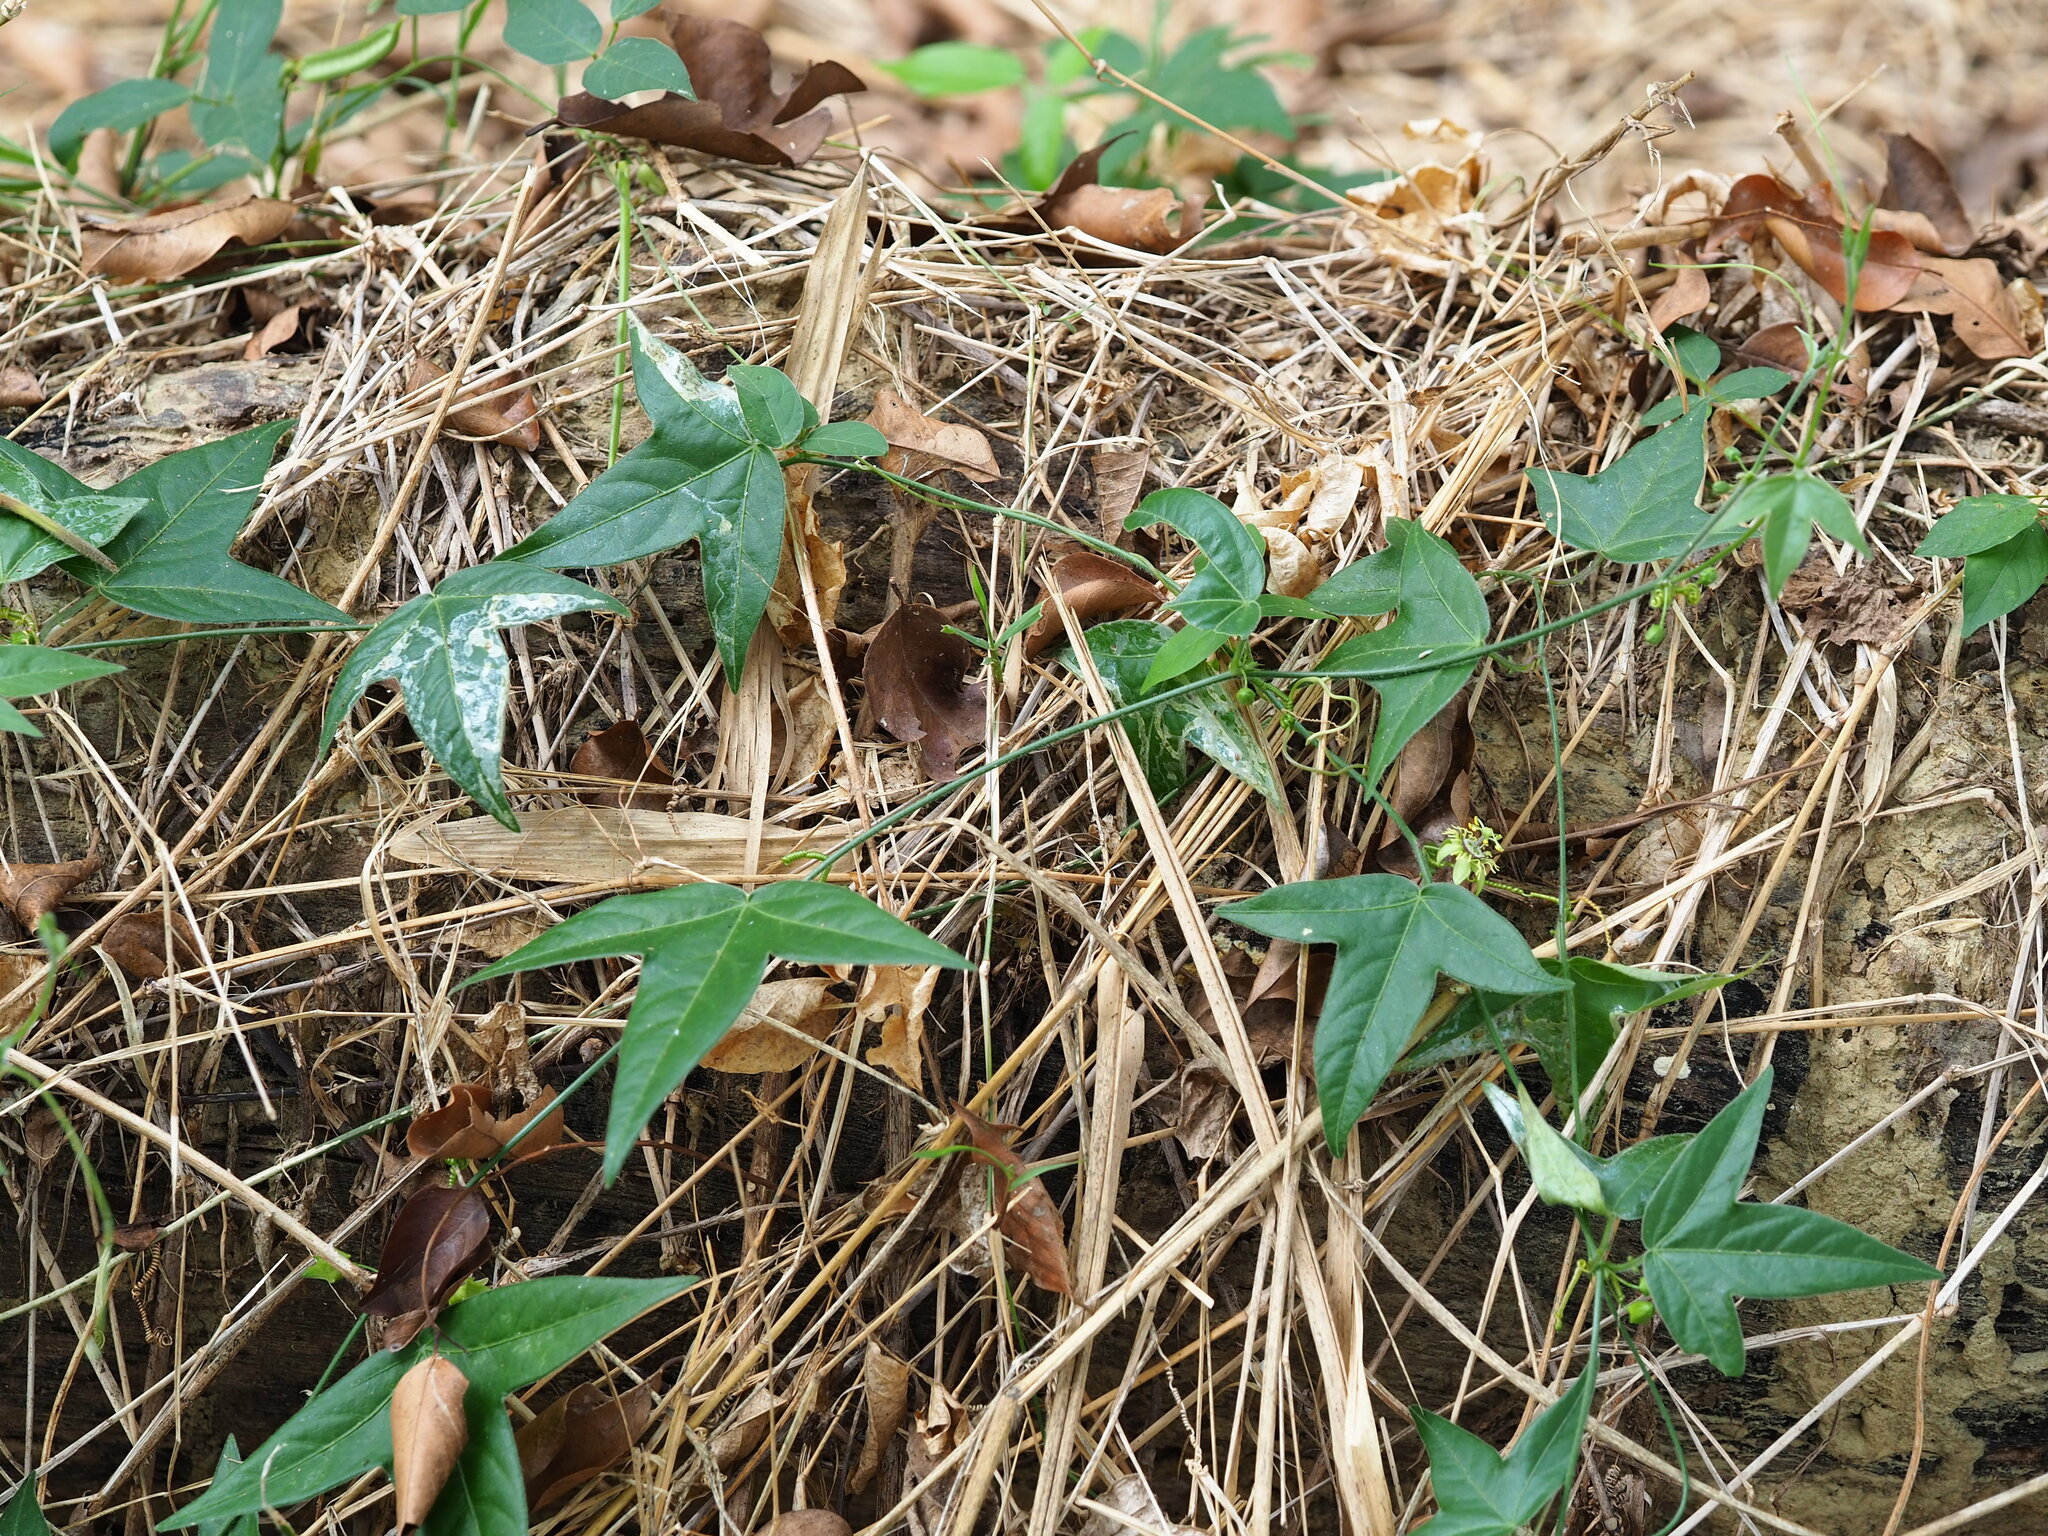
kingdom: Plantae
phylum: Tracheophyta
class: Magnoliopsida
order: Malpighiales
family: Passifloraceae
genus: Passiflora
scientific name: Passiflora suberosa
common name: Wild passionfruit
